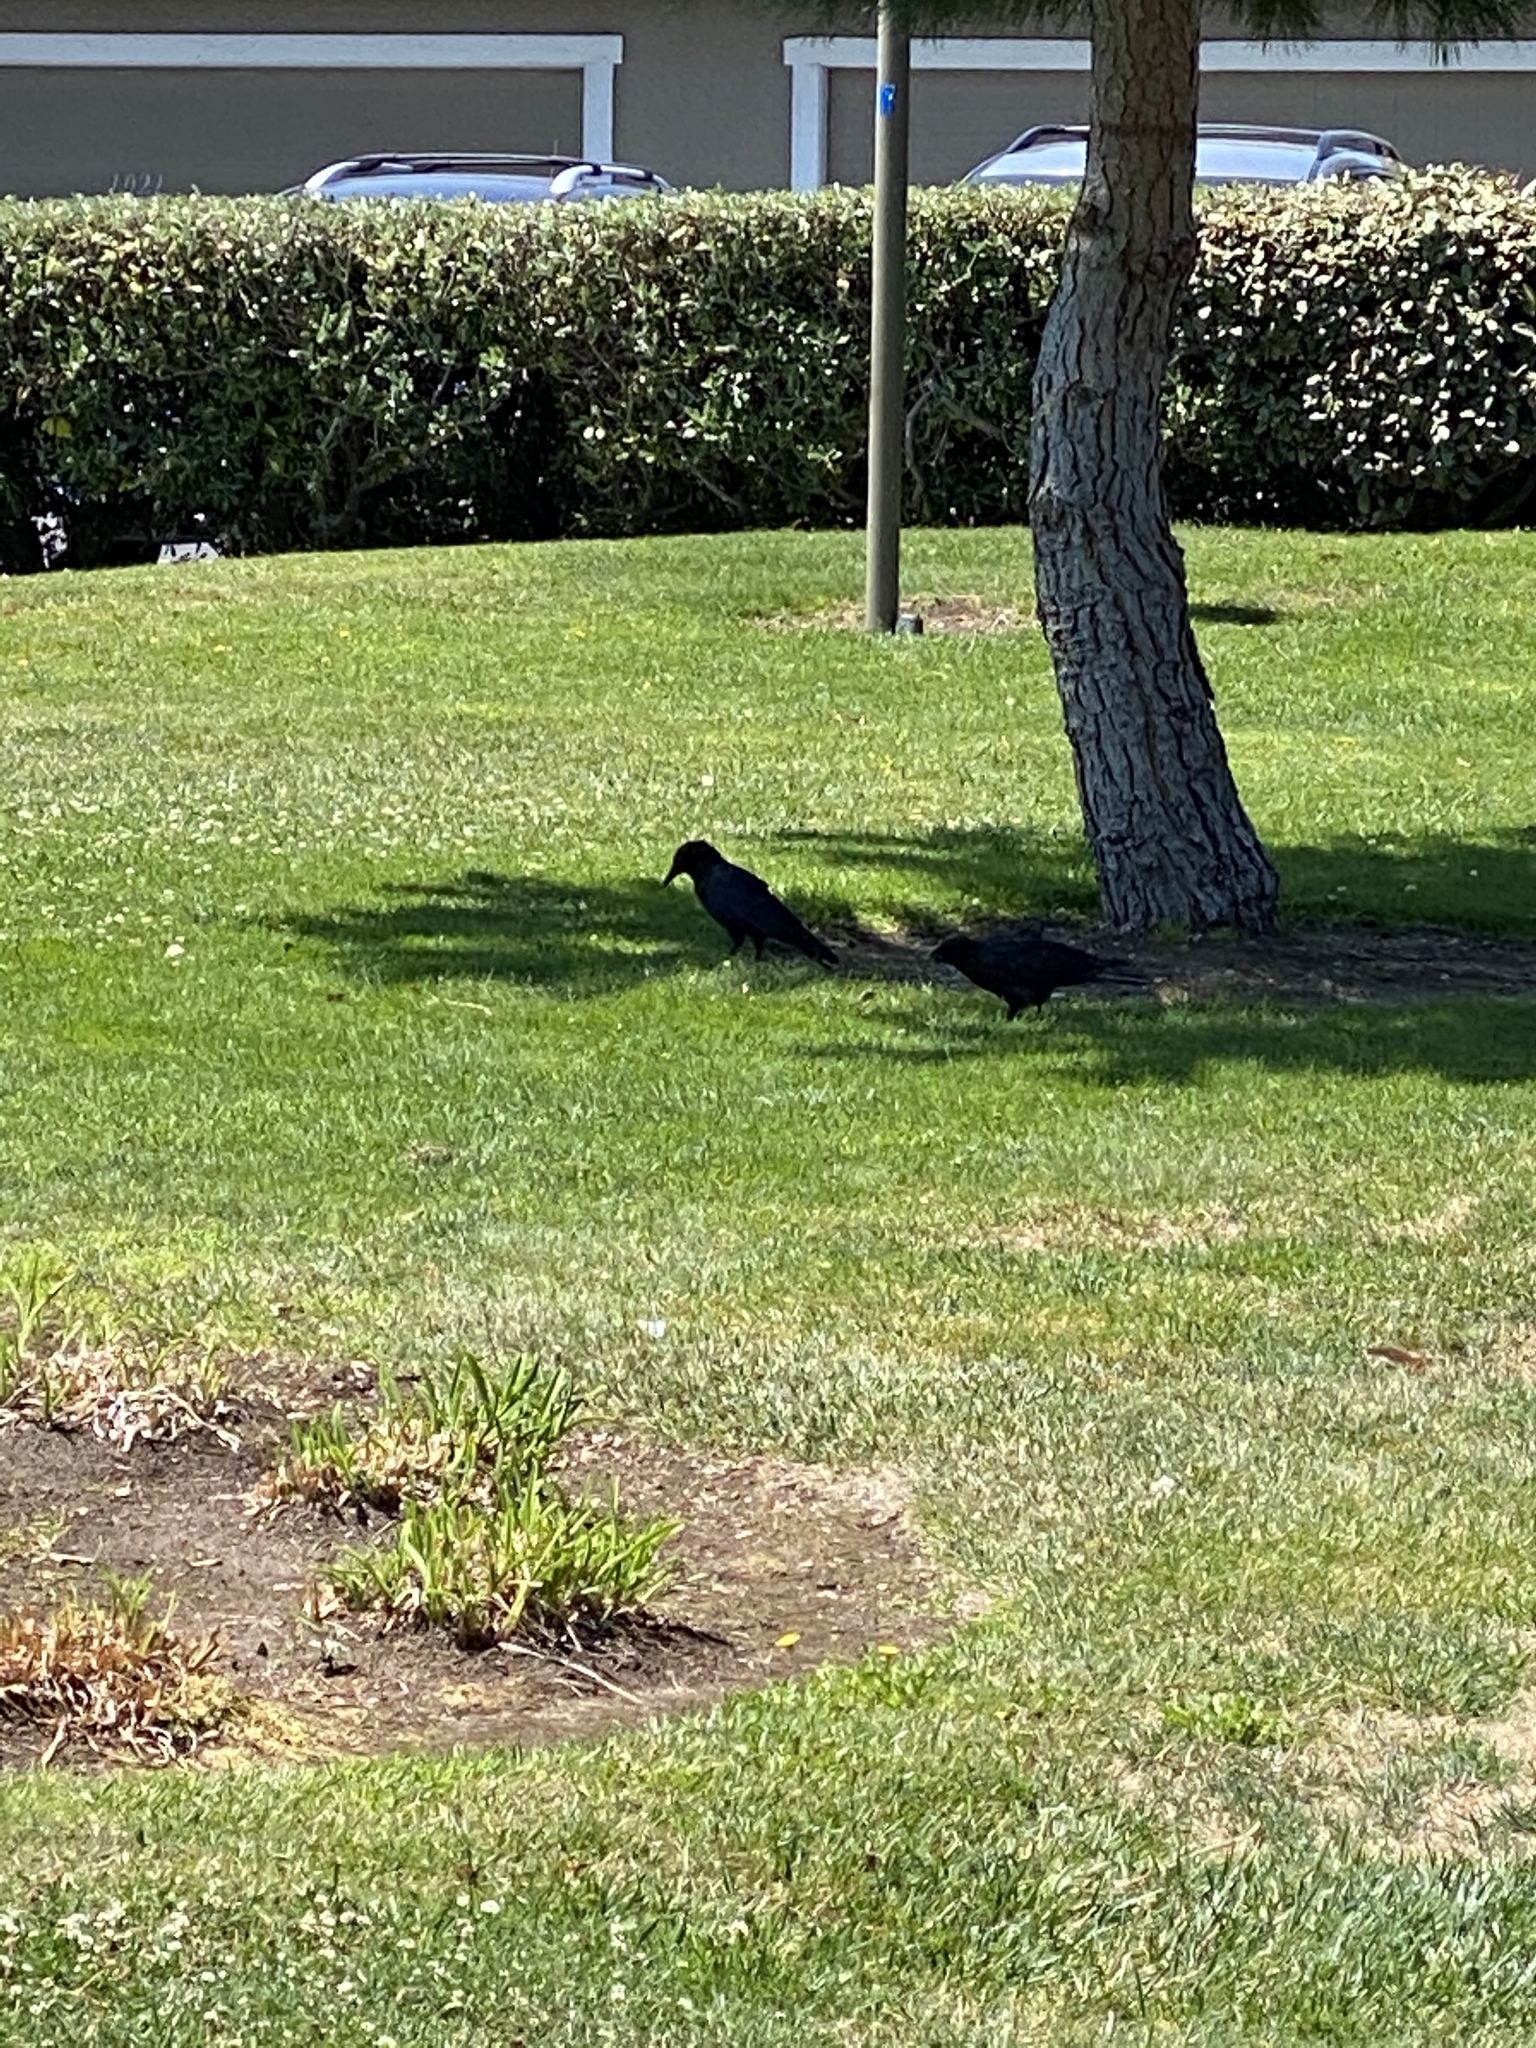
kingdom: Animalia
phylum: Chordata
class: Aves
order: Passeriformes
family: Corvidae
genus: Corvus
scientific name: Corvus brachyrhynchos
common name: American crow
